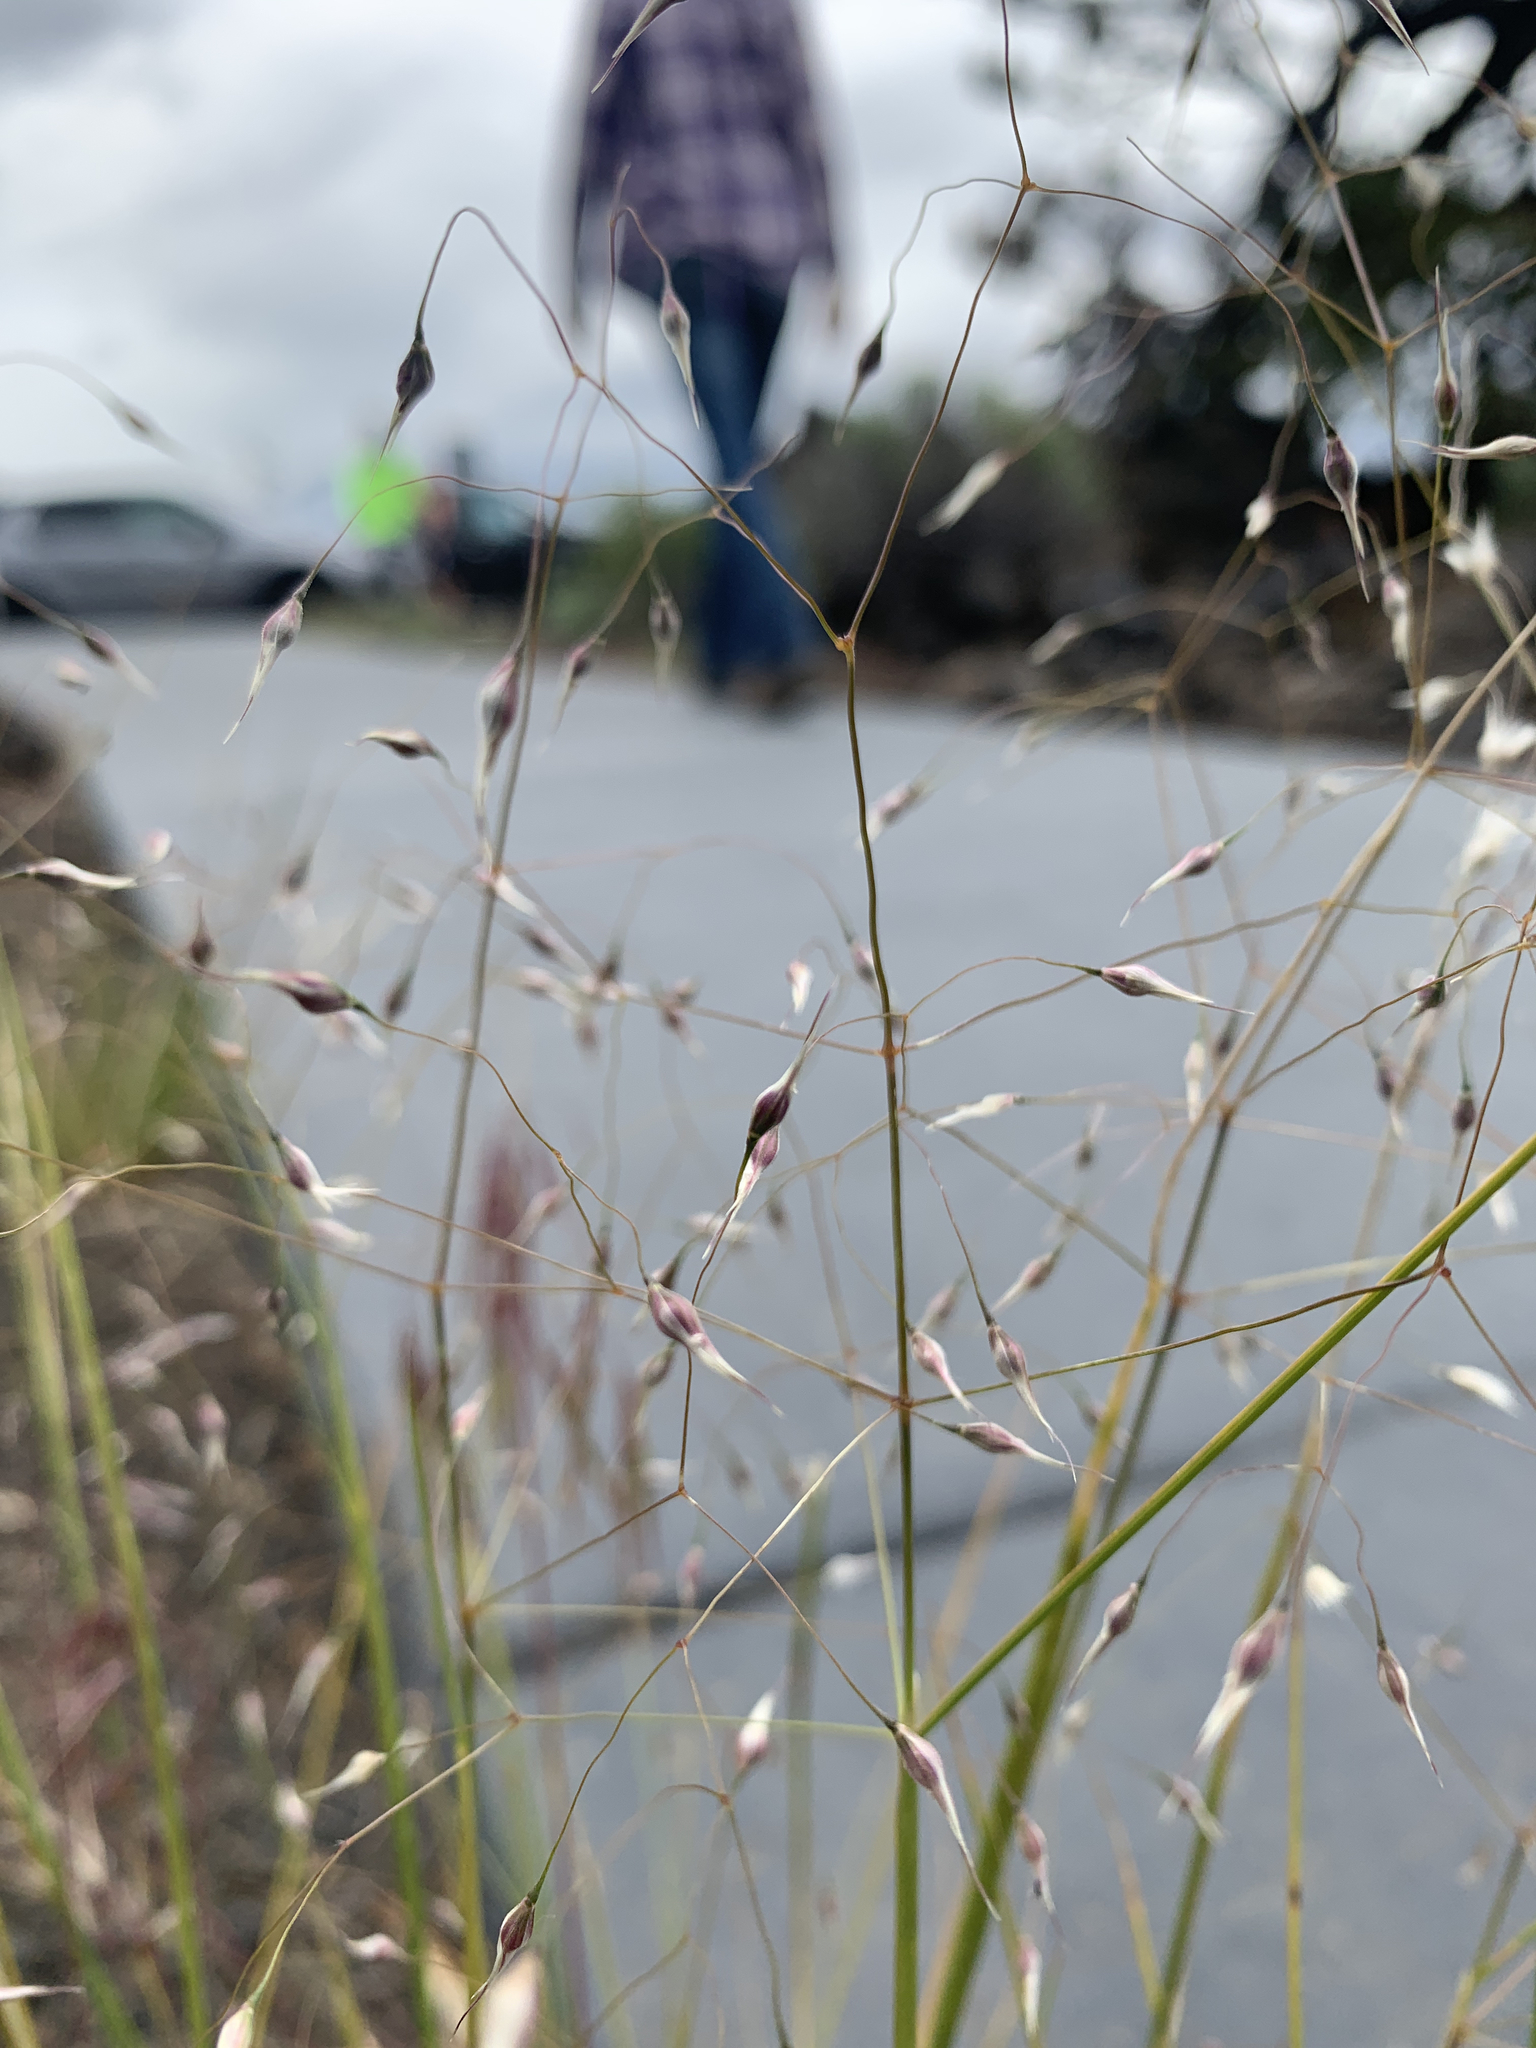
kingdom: Plantae
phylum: Tracheophyta
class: Liliopsida
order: Poales
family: Poaceae
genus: Eriocoma
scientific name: Eriocoma hymenoides
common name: Indian mountain ricegrass
